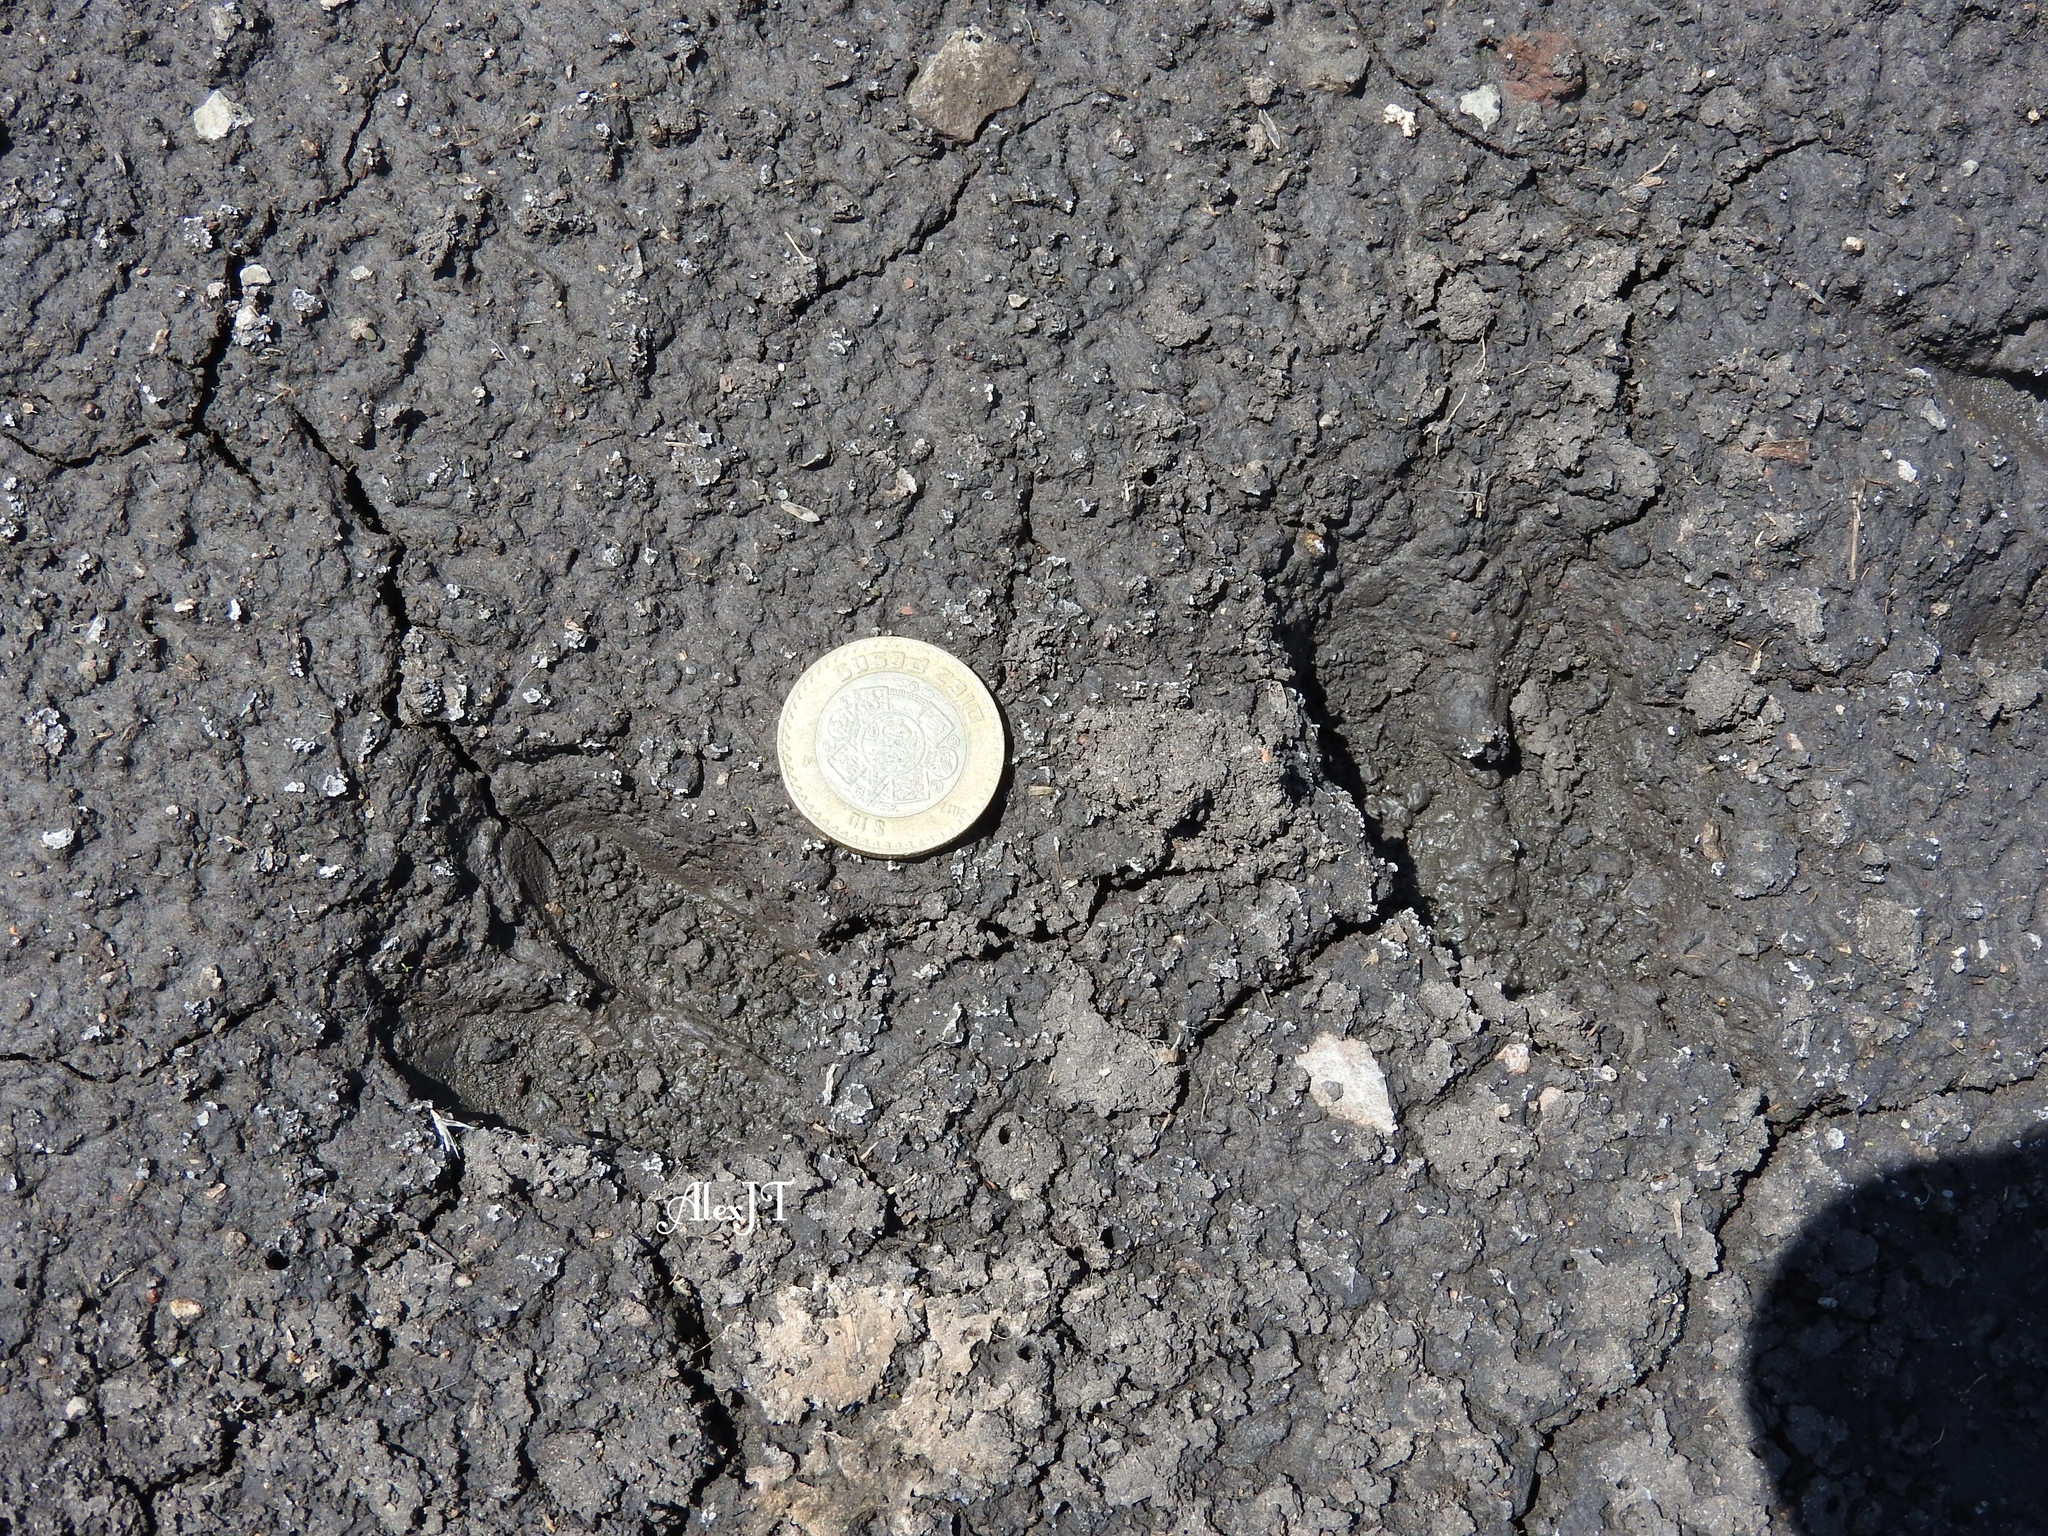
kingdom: Animalia
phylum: Chordata
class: Mammalia
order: Artiodactyla
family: Cervidae
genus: Odocoileus
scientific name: Odocoileus virginianus
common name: White-tailed deer
